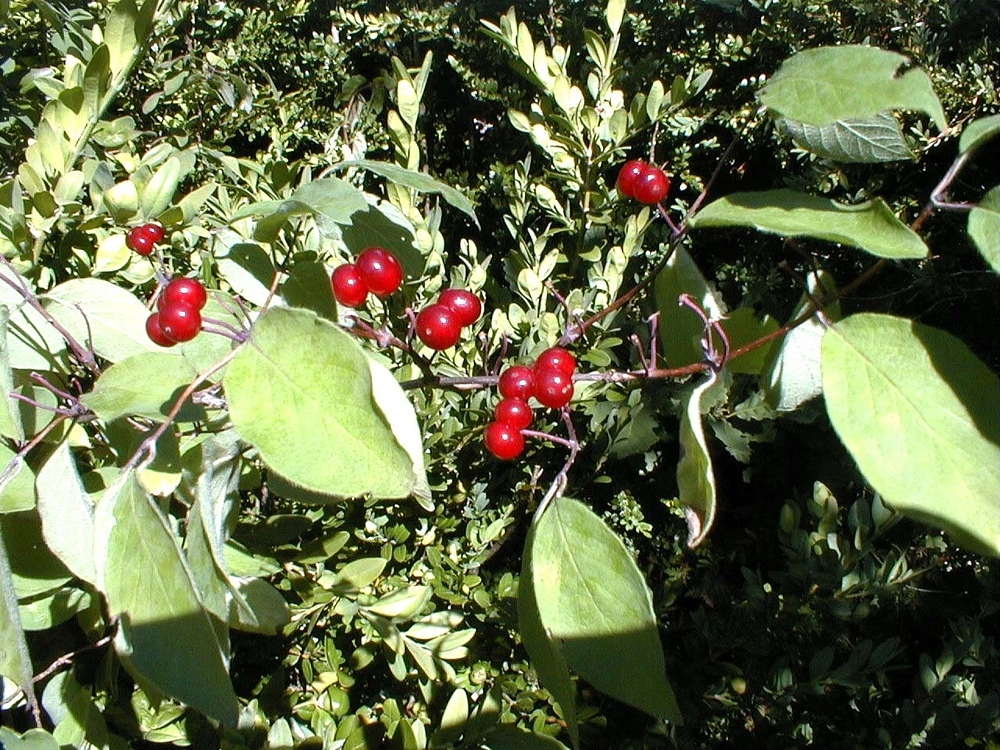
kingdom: Plantae
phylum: Tracheophyta
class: Magnoliopsida
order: Dipsacales
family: Caprifoliaceae
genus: Lonicera
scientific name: Lonicera xylosteum
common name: Fly honeysuckle
